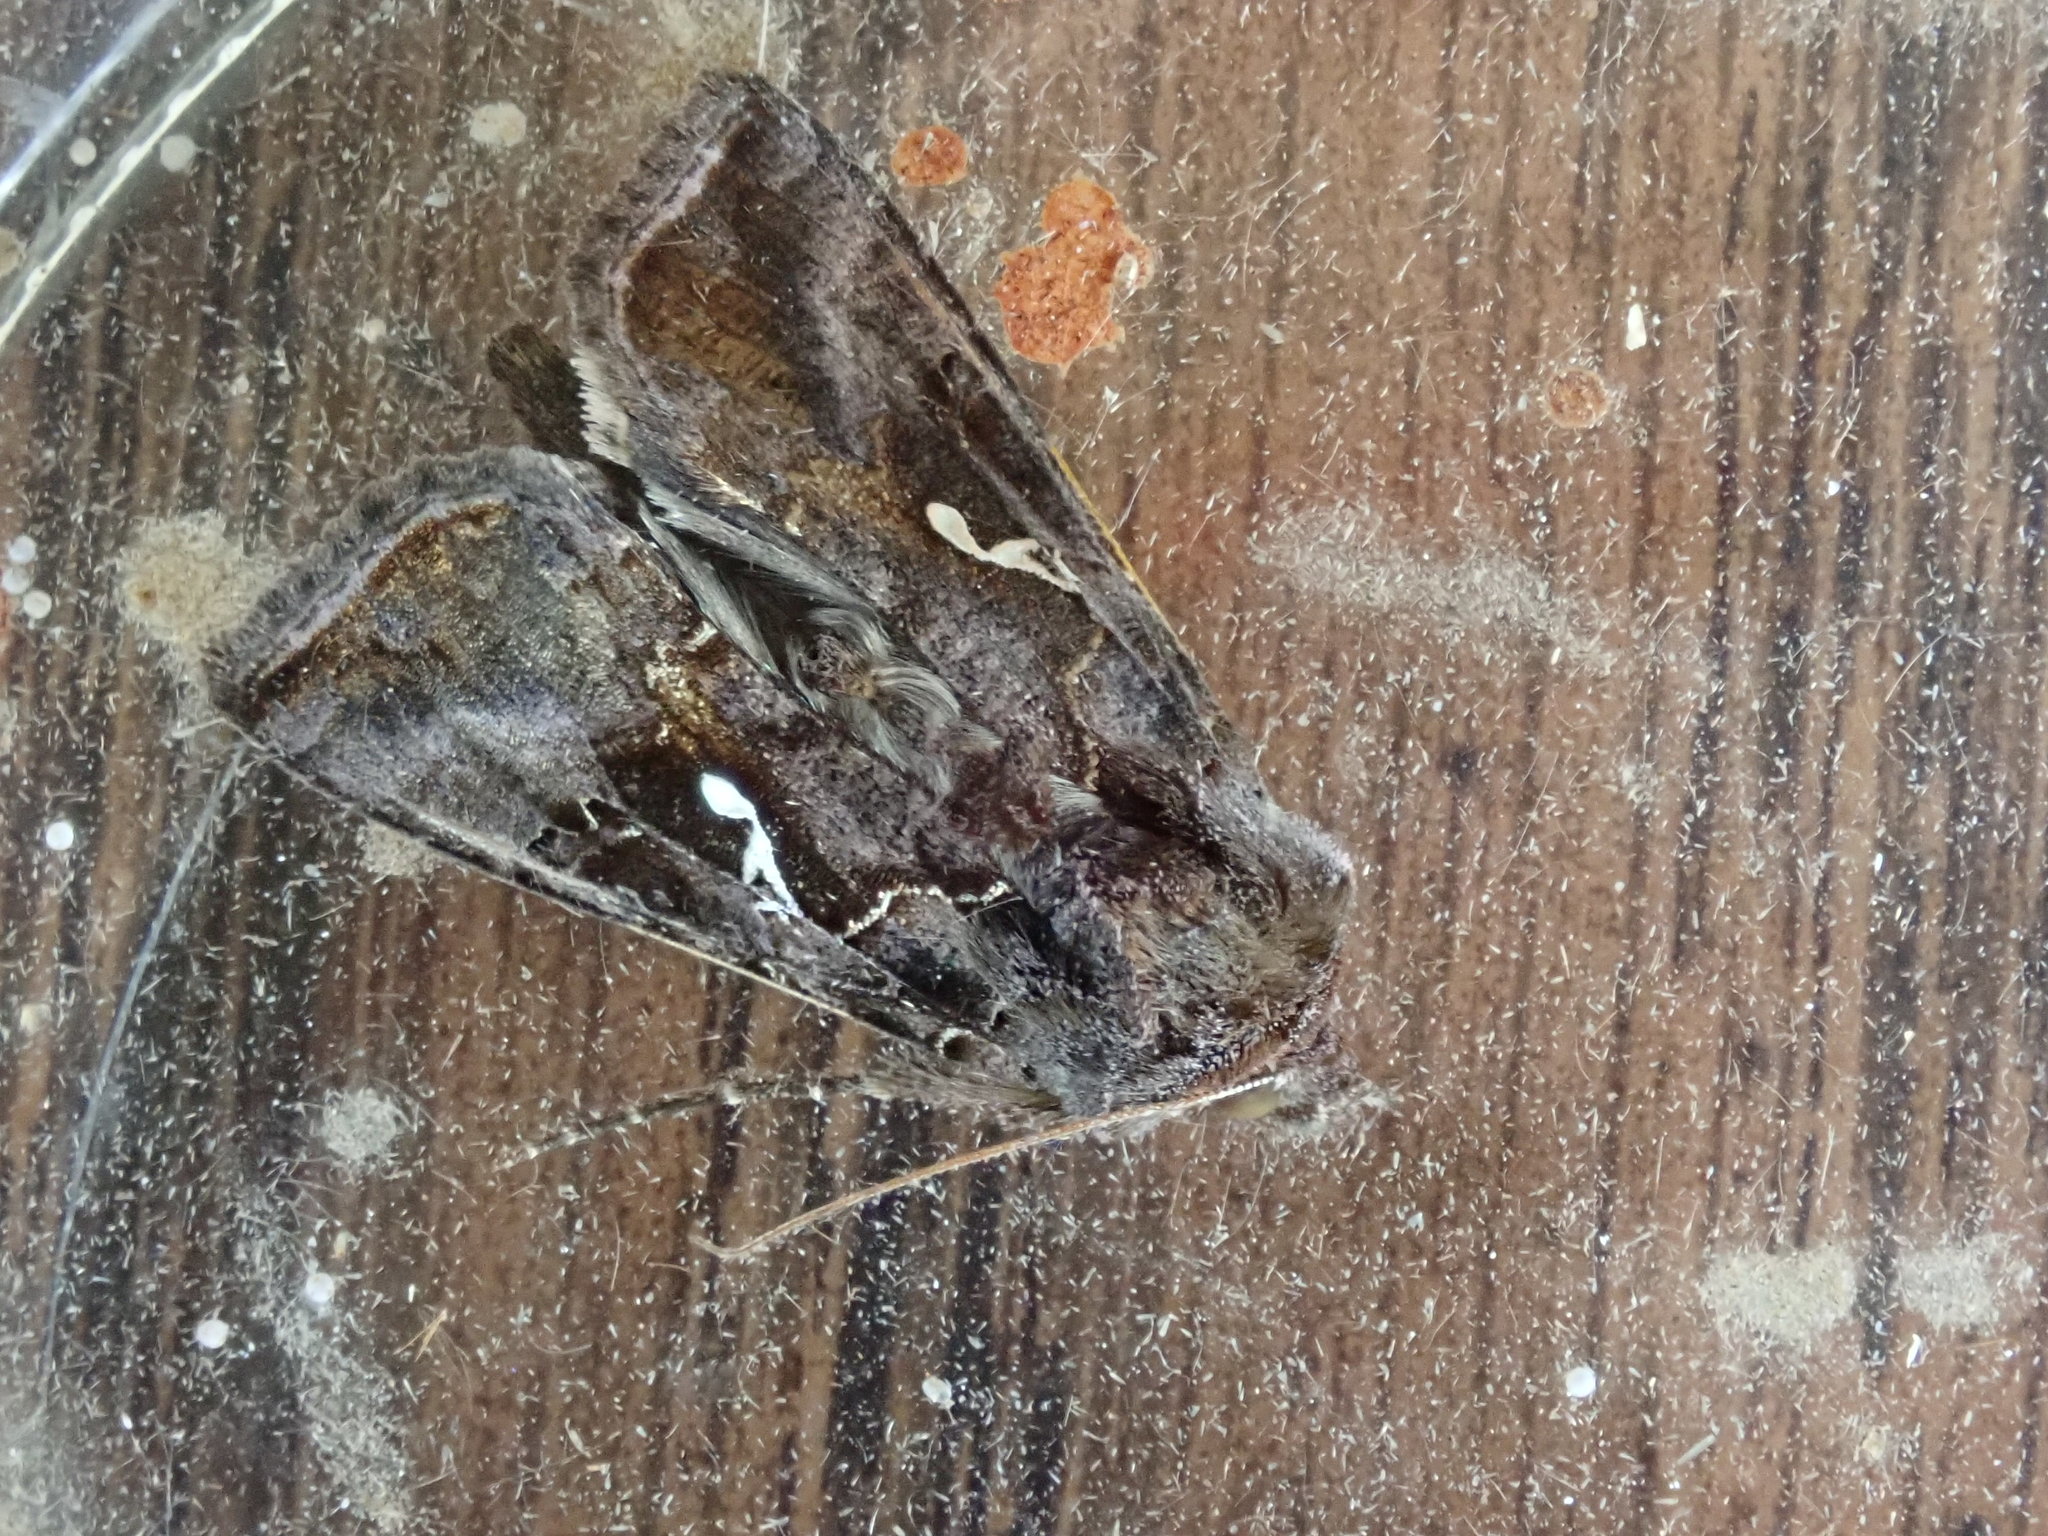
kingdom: Animalia
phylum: Arthropoda
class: Insecta
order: Lepidoptera
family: Noctuidae
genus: Autographa
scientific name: Autographa precationis
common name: Common looper moth
